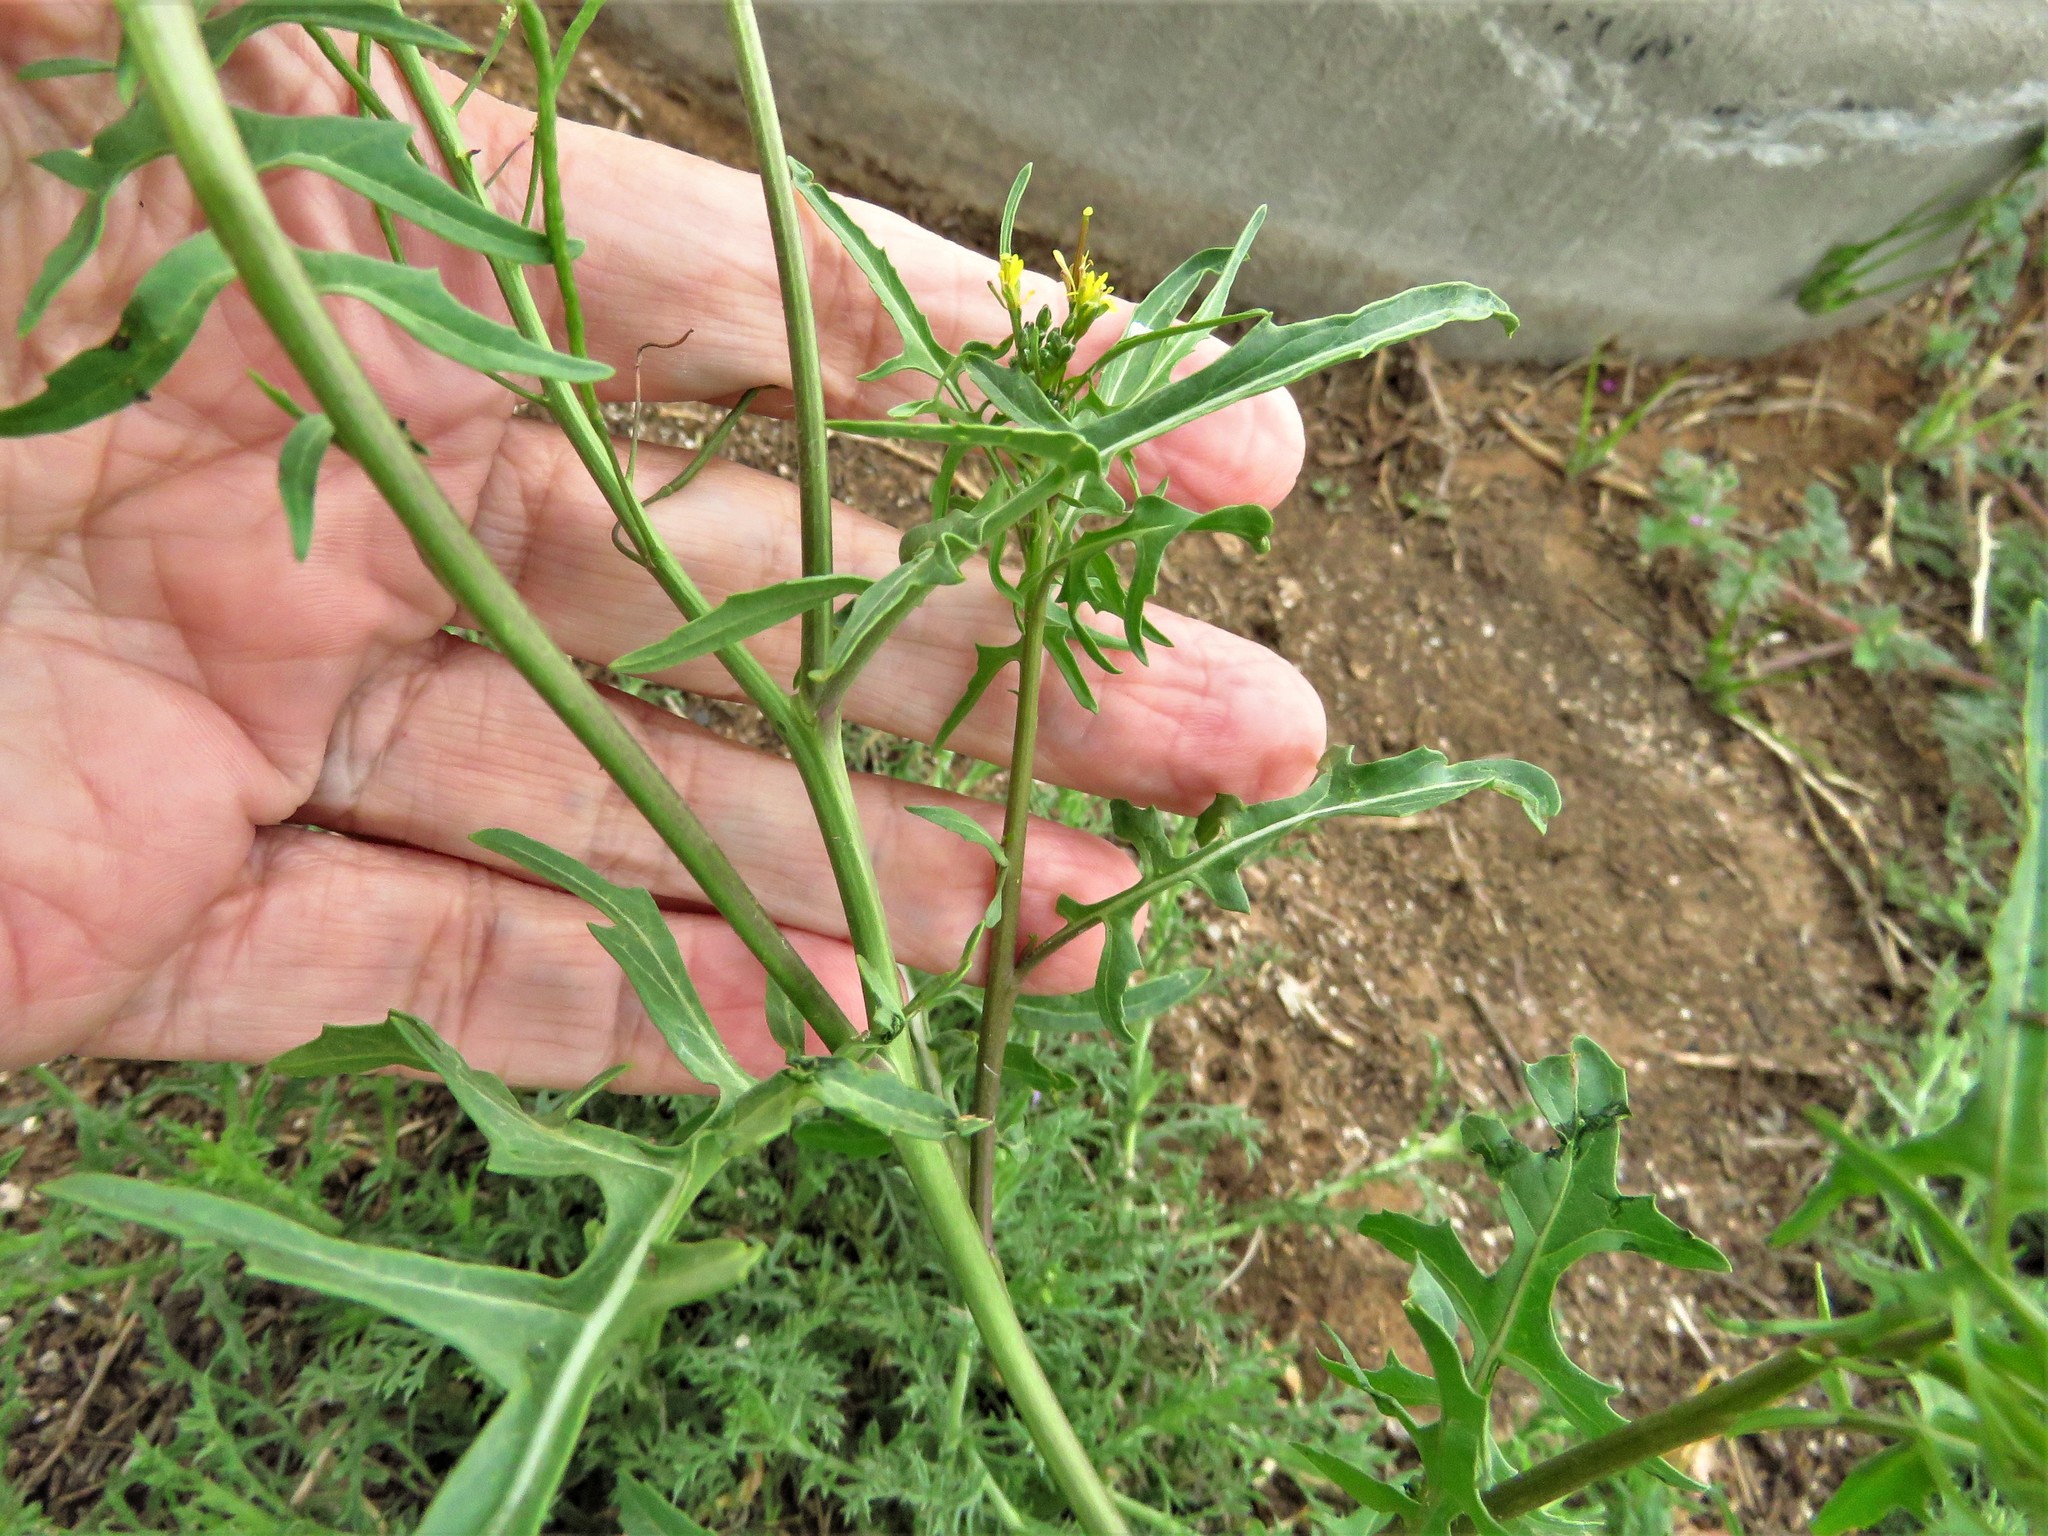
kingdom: Plantae
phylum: Tracheophyta
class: Magnoliopsida
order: Brassicales
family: Brassicaceae
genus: Sisymbrium
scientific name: Sisymbrium irio
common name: London rocket
